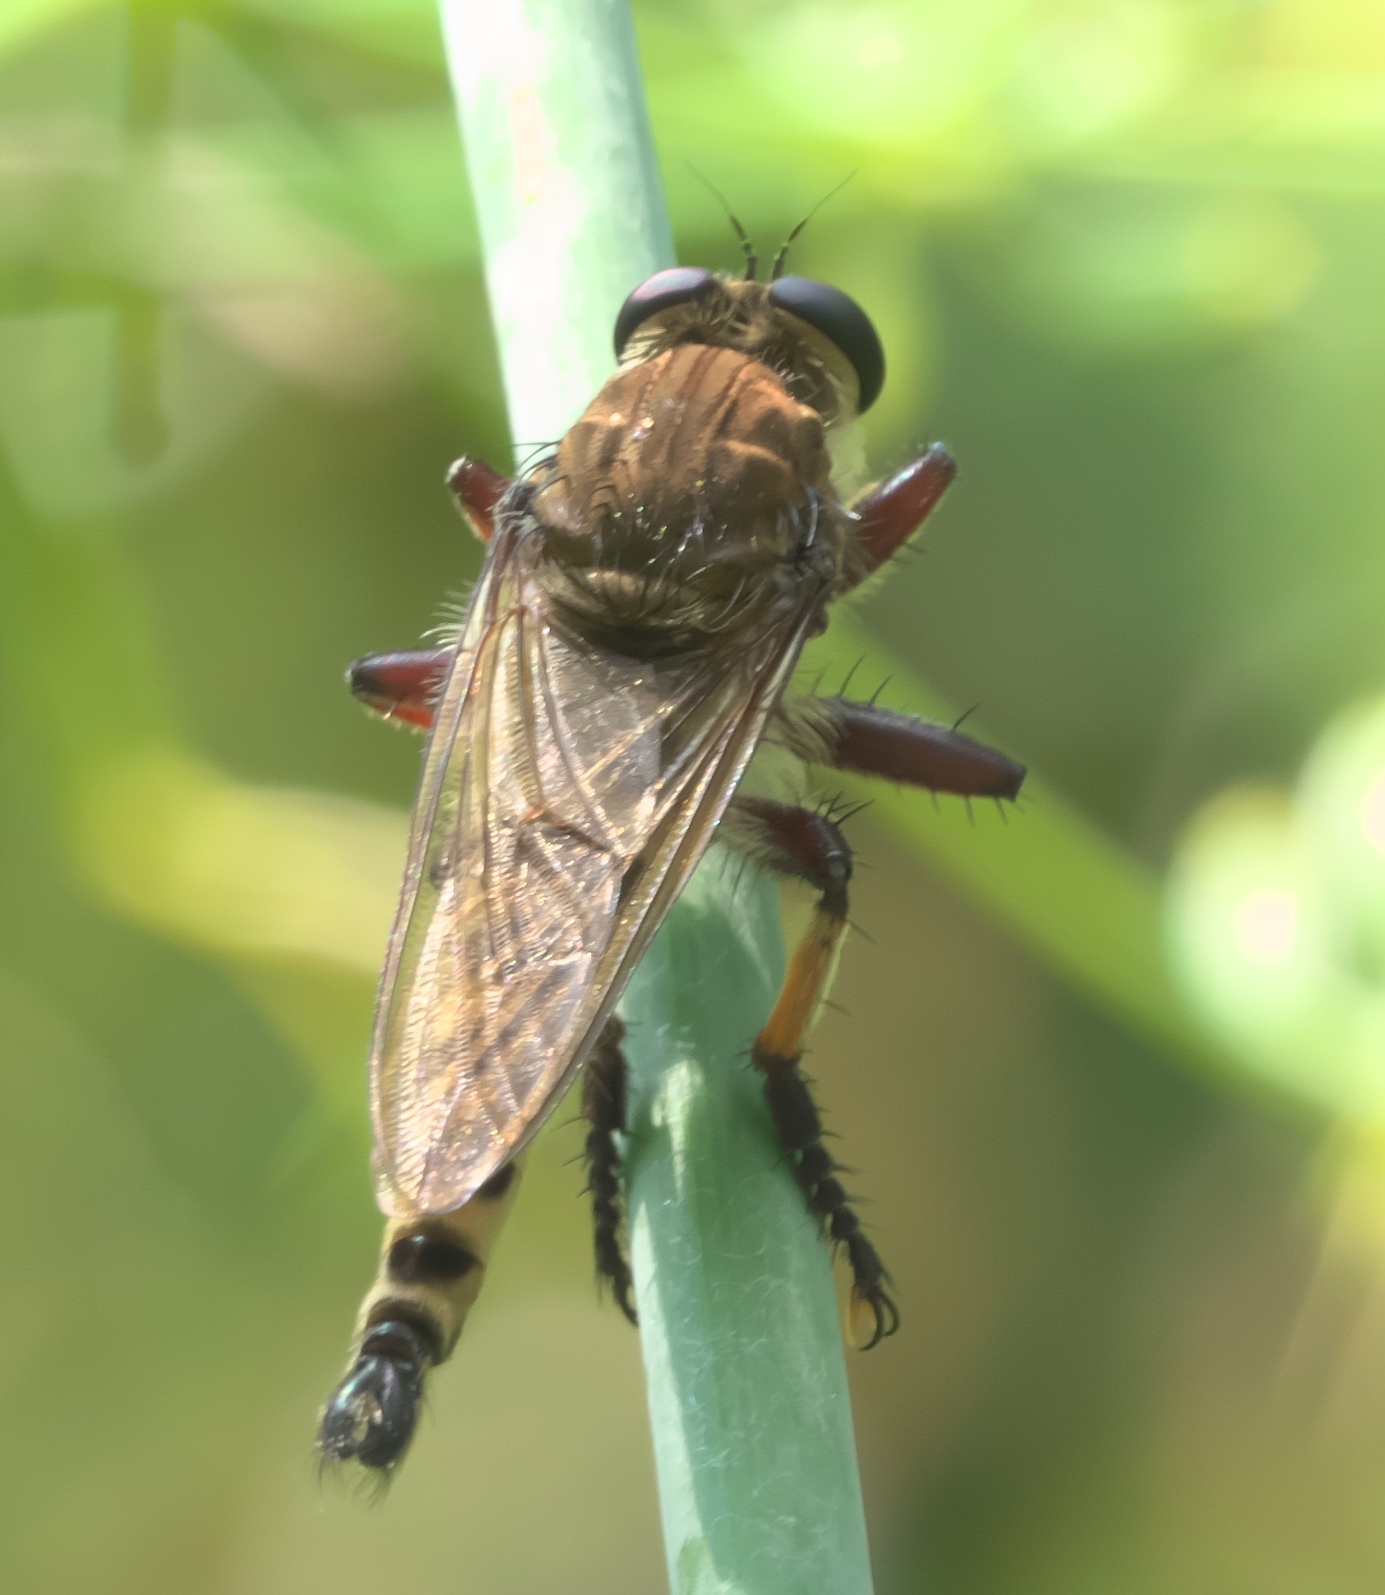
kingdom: Animalia
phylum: Arthropoda
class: Insecta
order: Diptera
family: Asilidae
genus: Promachus
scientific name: Promachus hinei
